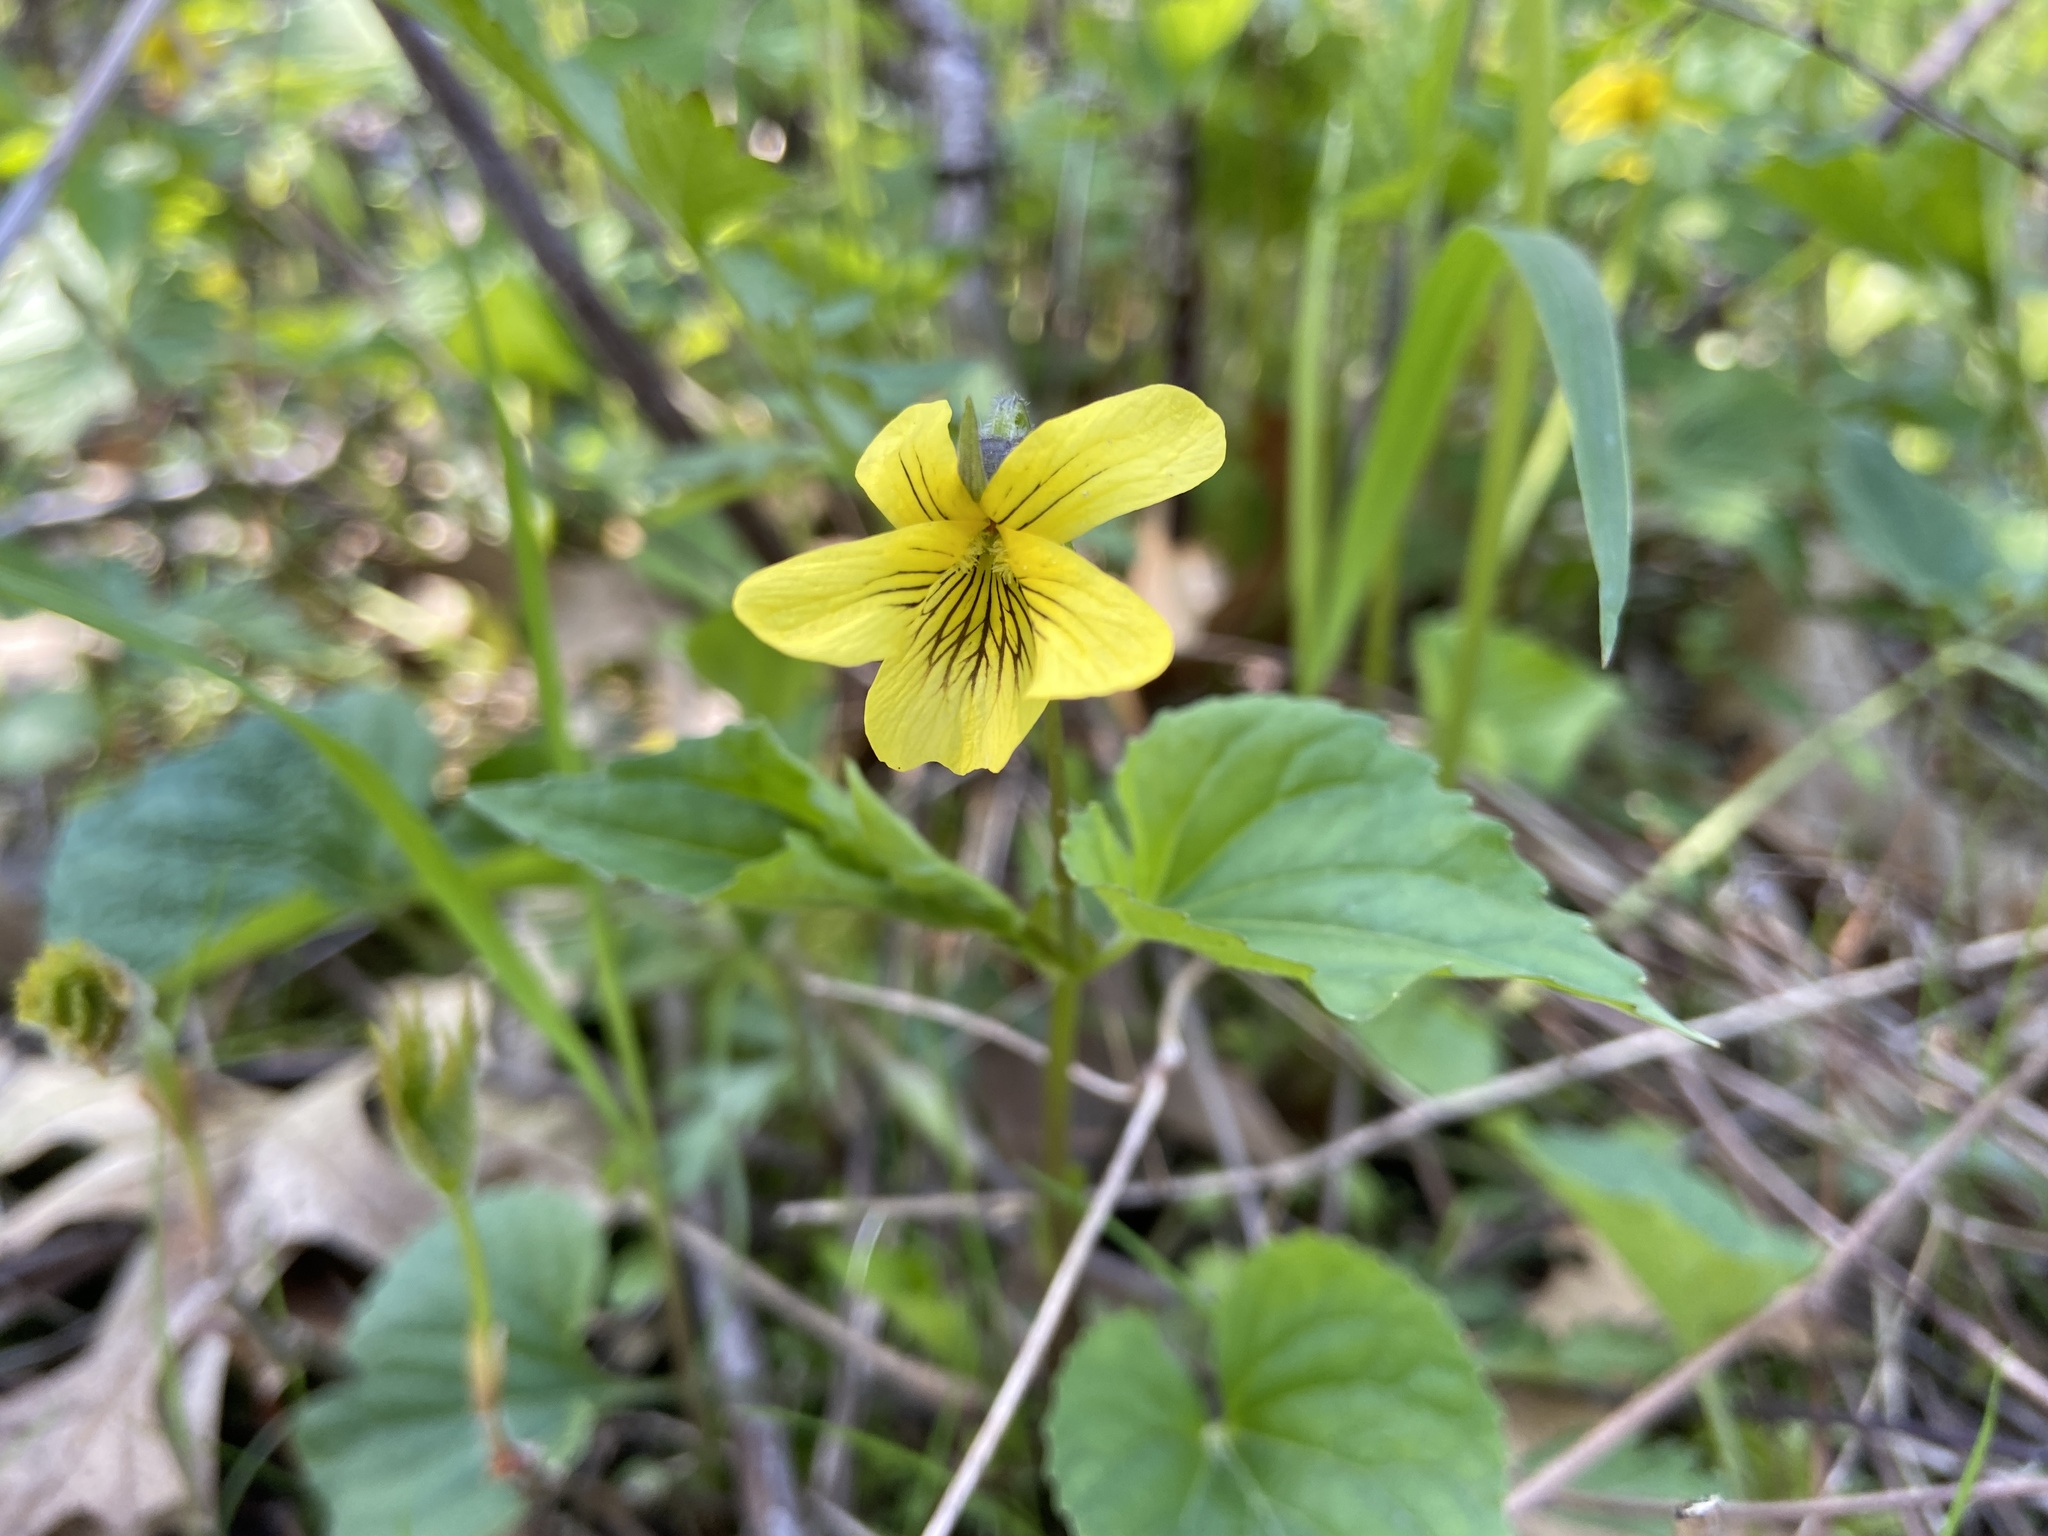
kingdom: Plantae
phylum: Tracheophyta
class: Magnoliopsida
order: Malpighiales
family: Violaceae
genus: Viola
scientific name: Viola eriocarpa
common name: Smooth yellow violet
